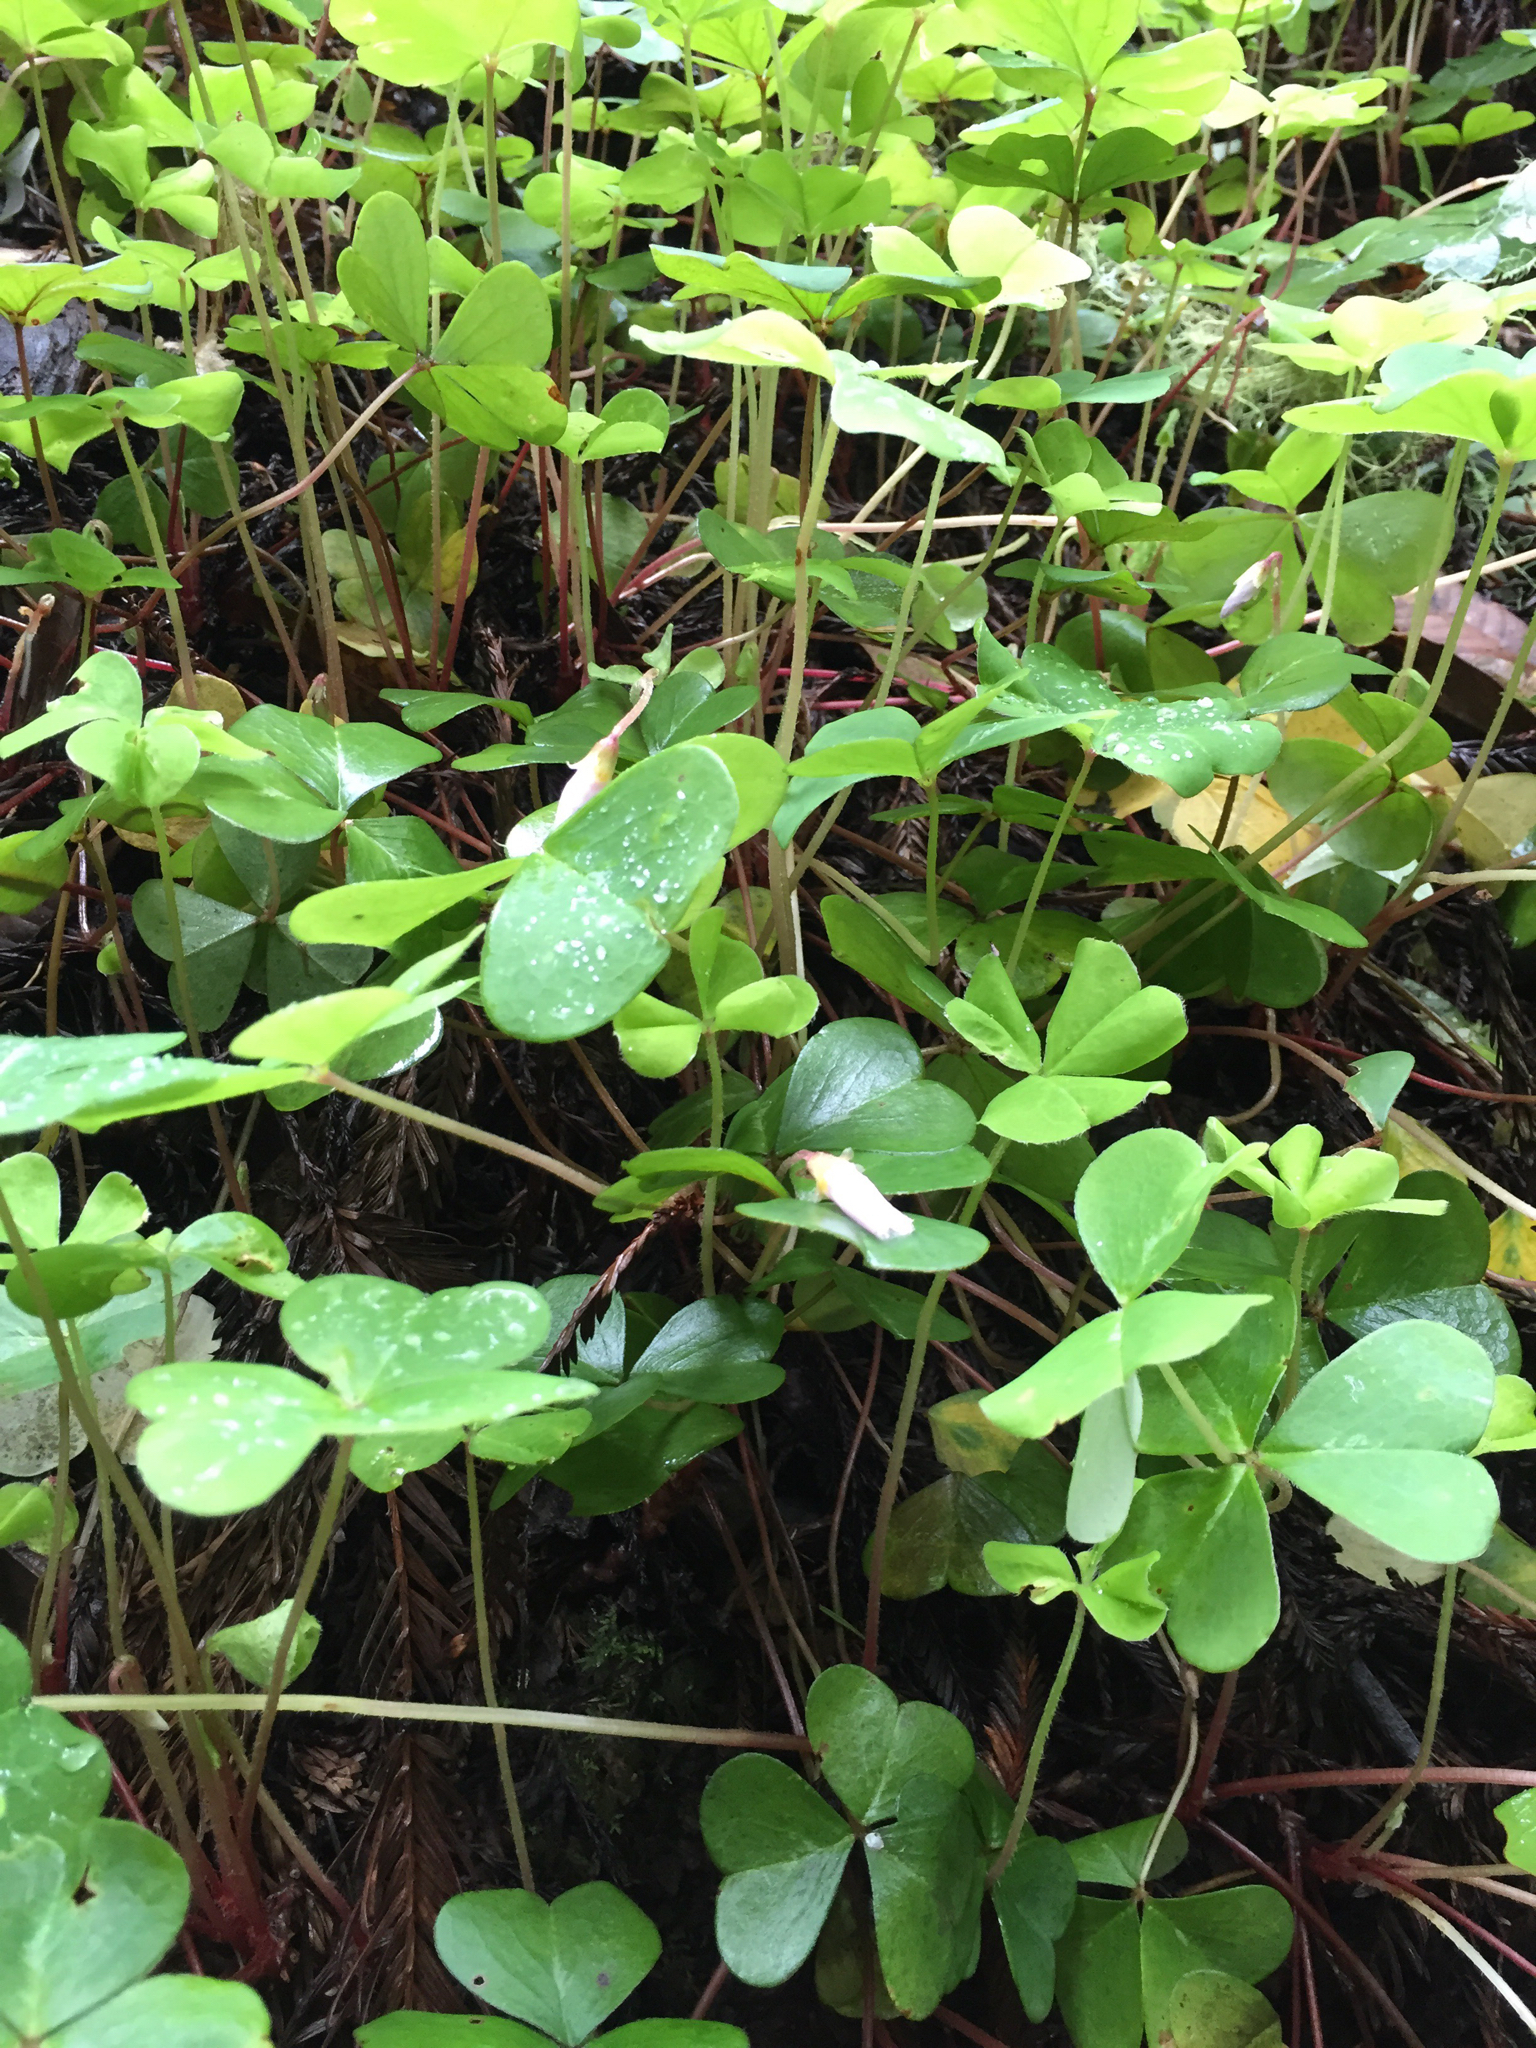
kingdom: Plantae
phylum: Tracheophyta
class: Magnoliopsida
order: Oxalidales
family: Oxalidaceae
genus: Oxalis
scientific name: Oxalis oregana
